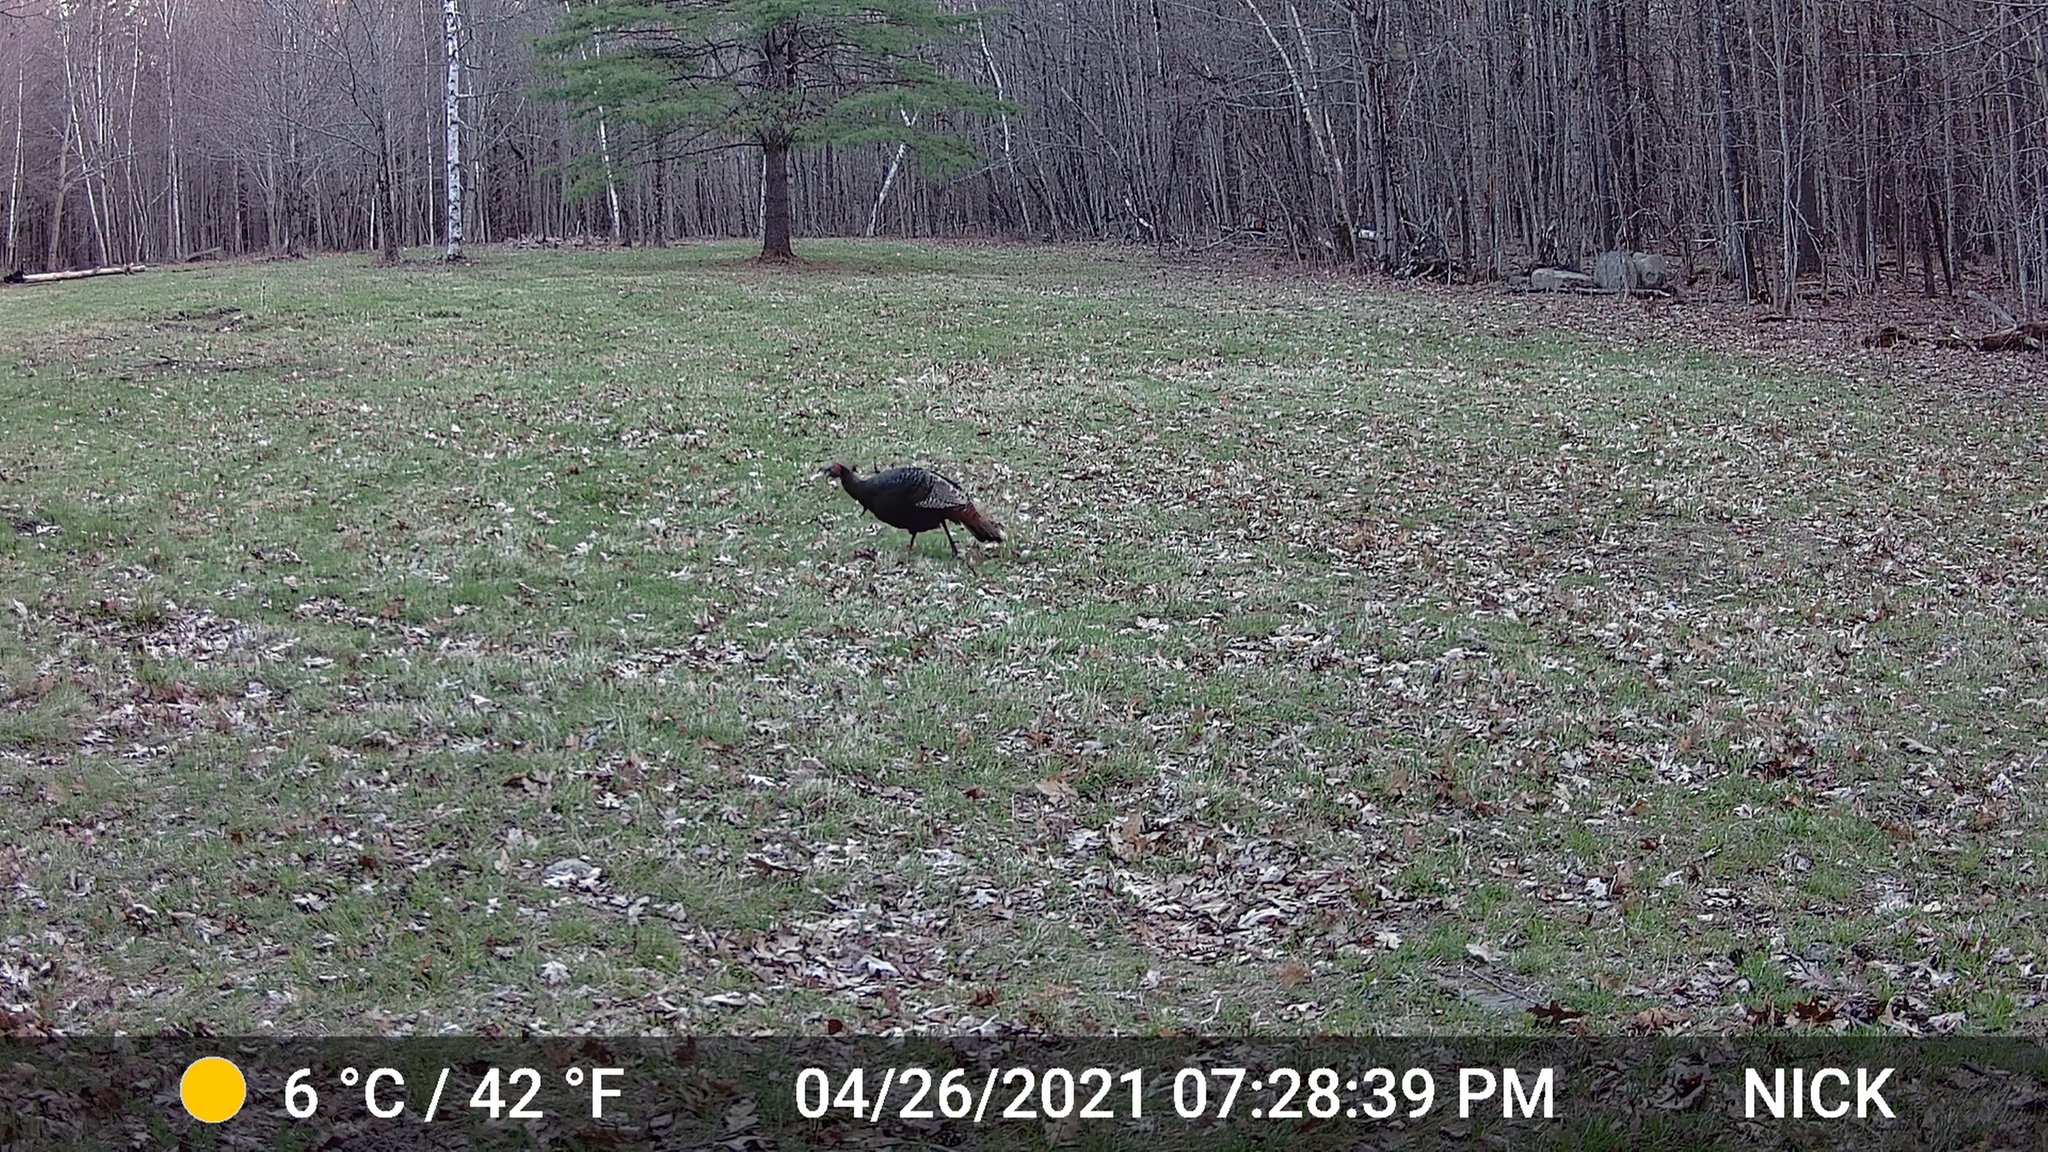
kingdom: Animalia
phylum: Chordata
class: Aves
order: Galliformes
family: Phasianidae
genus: Meleagris
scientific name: Meleagris gallopavo
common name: Wild turkey
